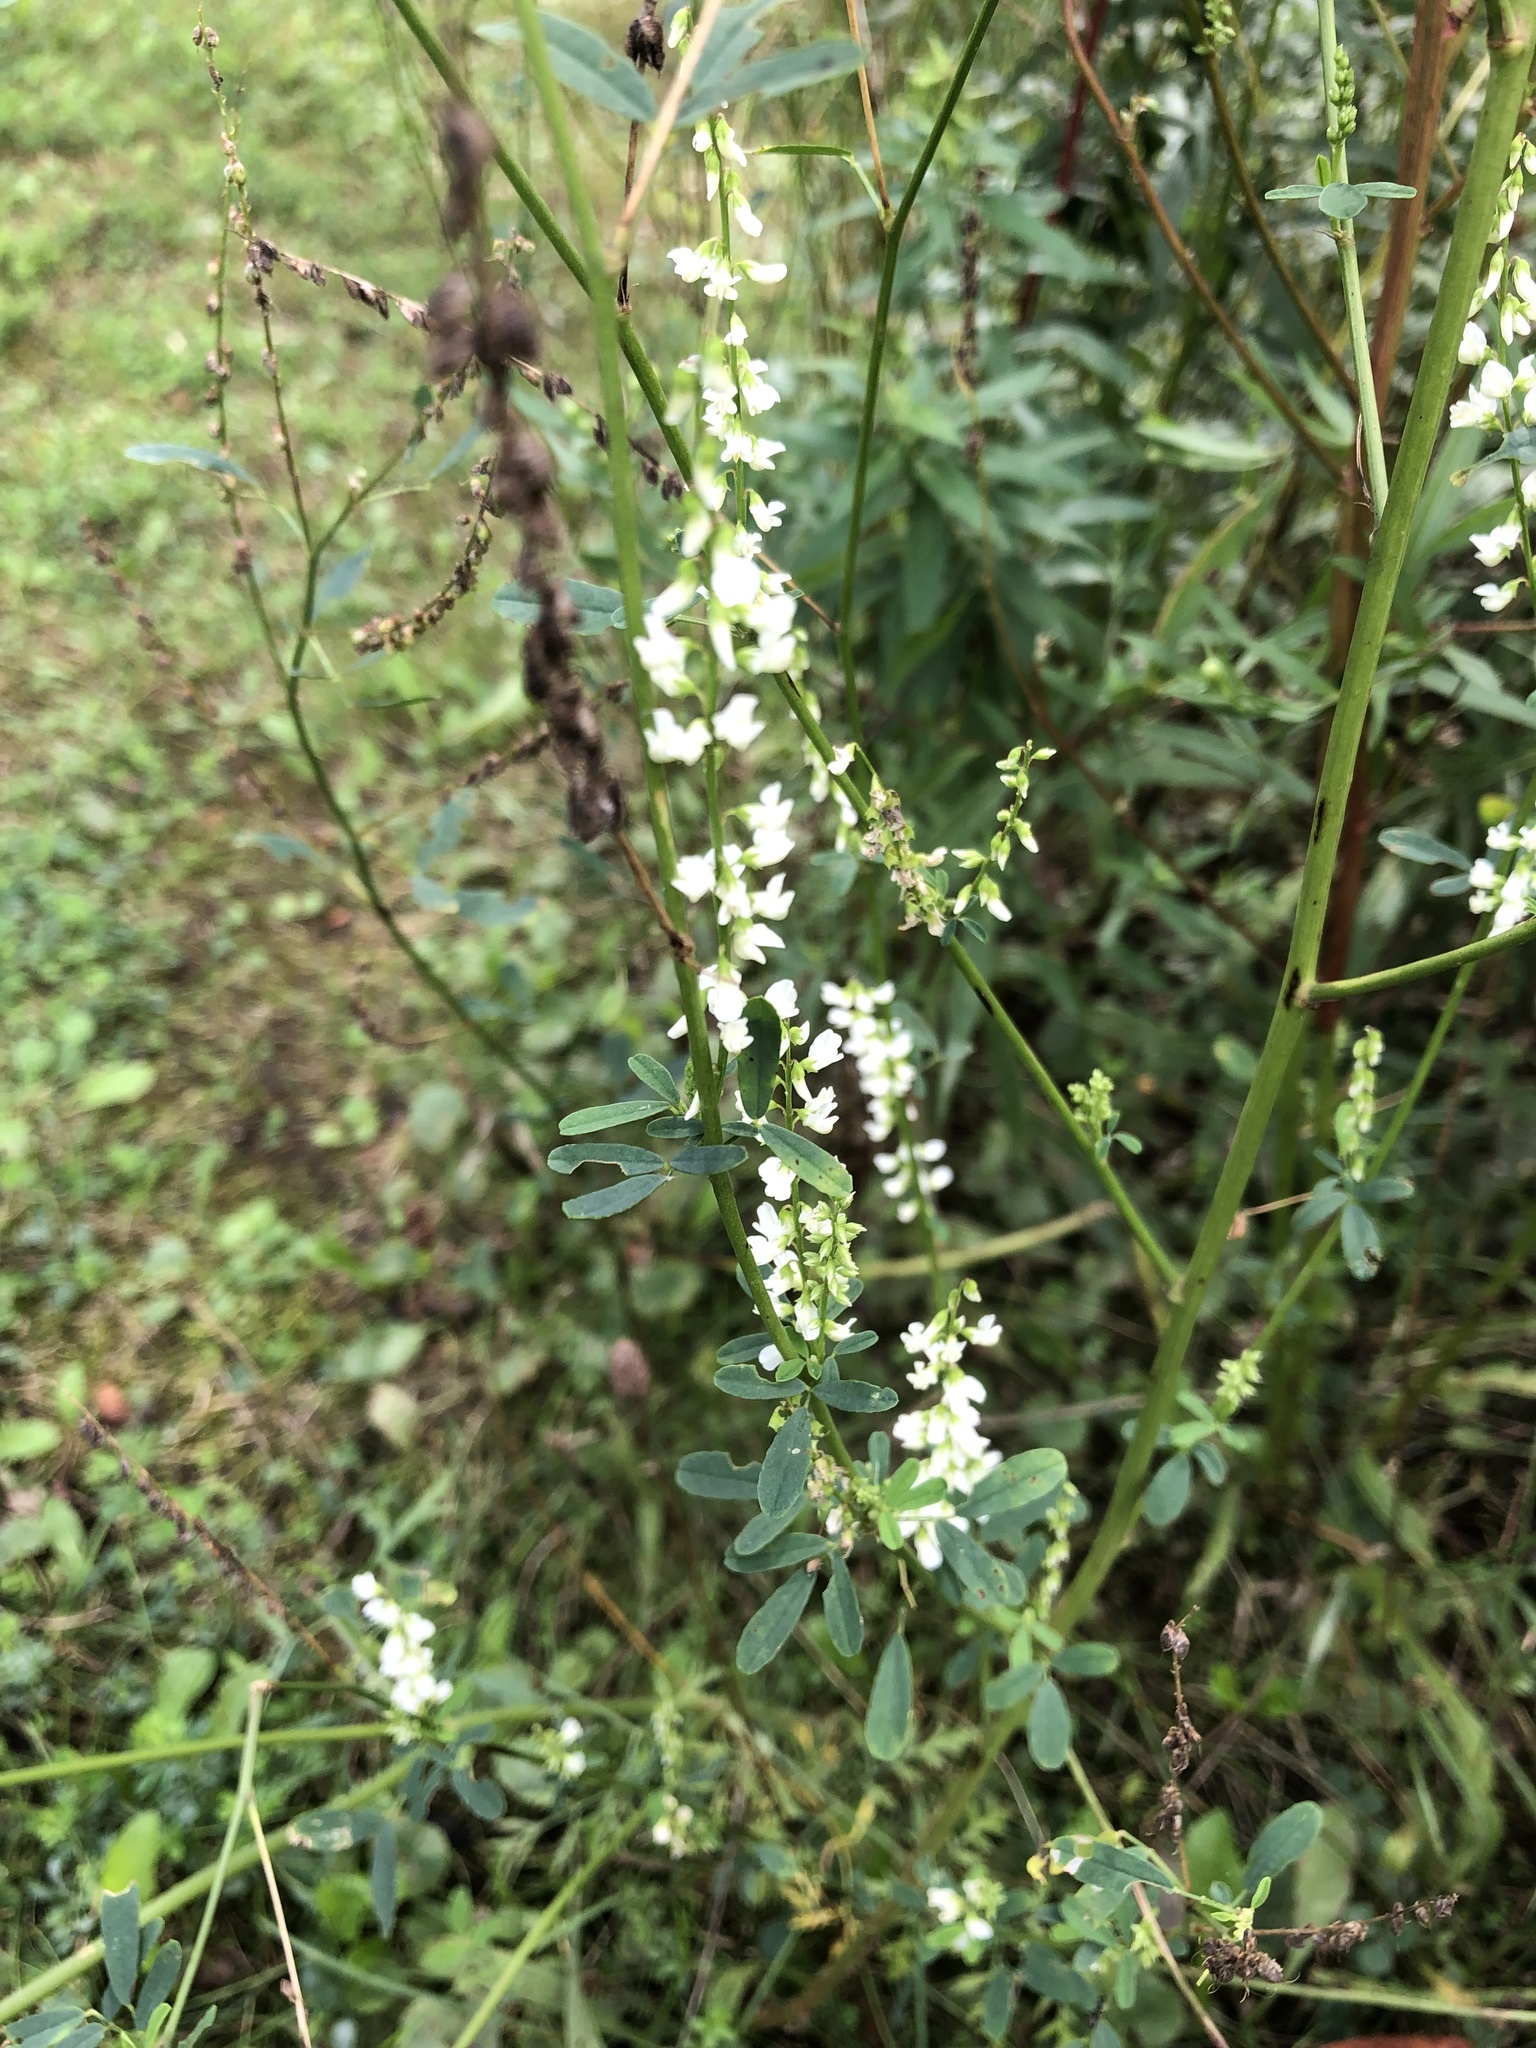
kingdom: Plantae
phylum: Tracheophyta
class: Magnoliopsida
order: Fabales
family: Fabaceae
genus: Melilotus
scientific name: Melilotus albus
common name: White melilot
